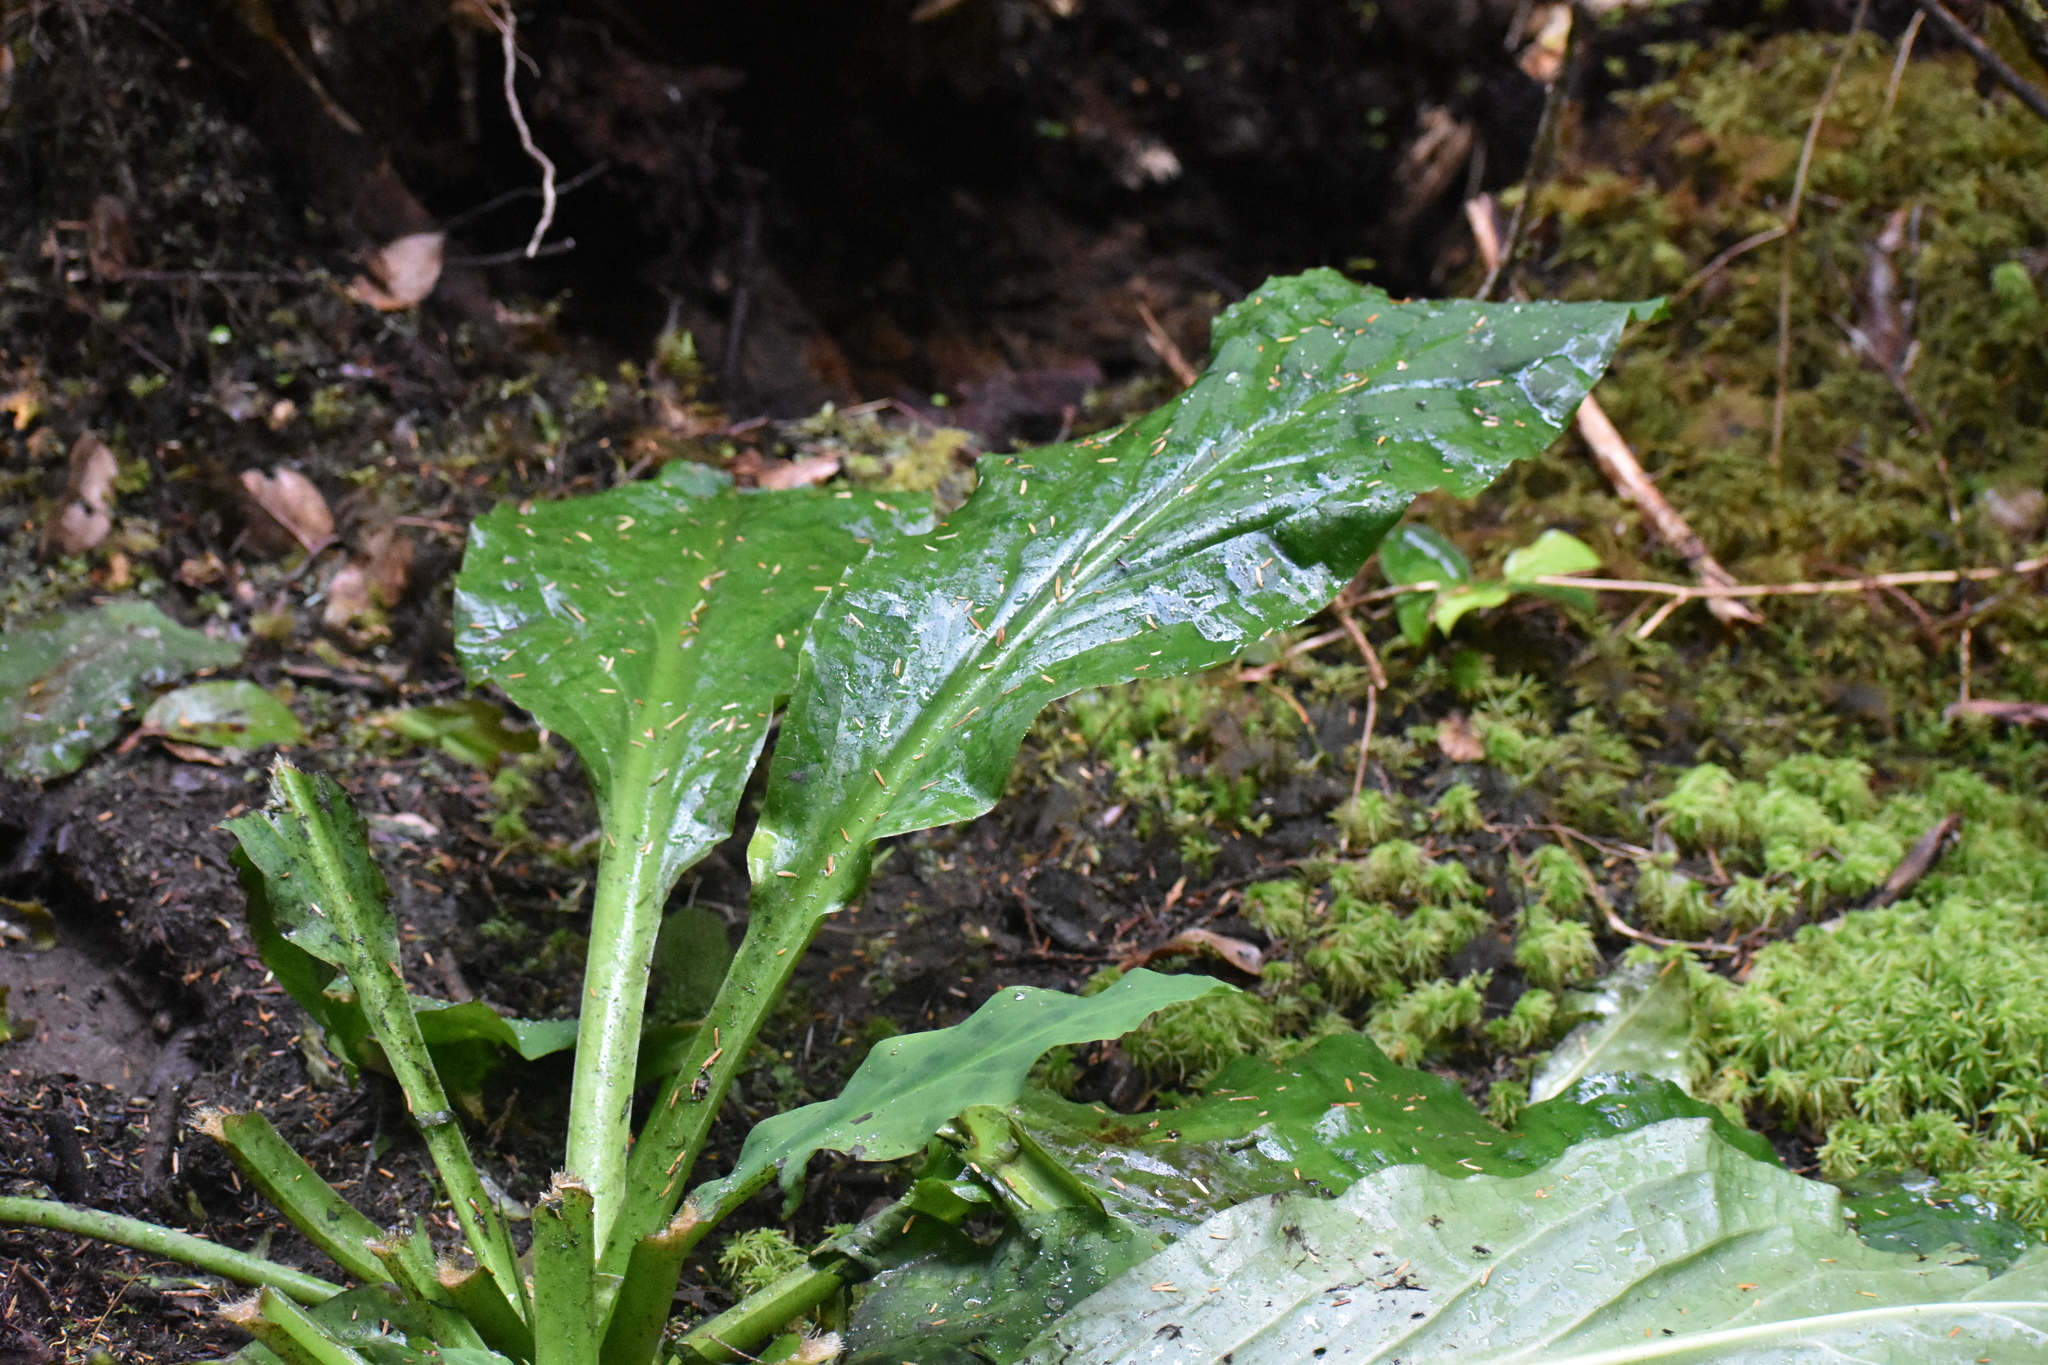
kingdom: Plantae
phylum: Tracheophyta
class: Liliopsida
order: Alismatales
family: Araceae
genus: Lysichiton
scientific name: Lysichiton americanus
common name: American skunk cabbage
